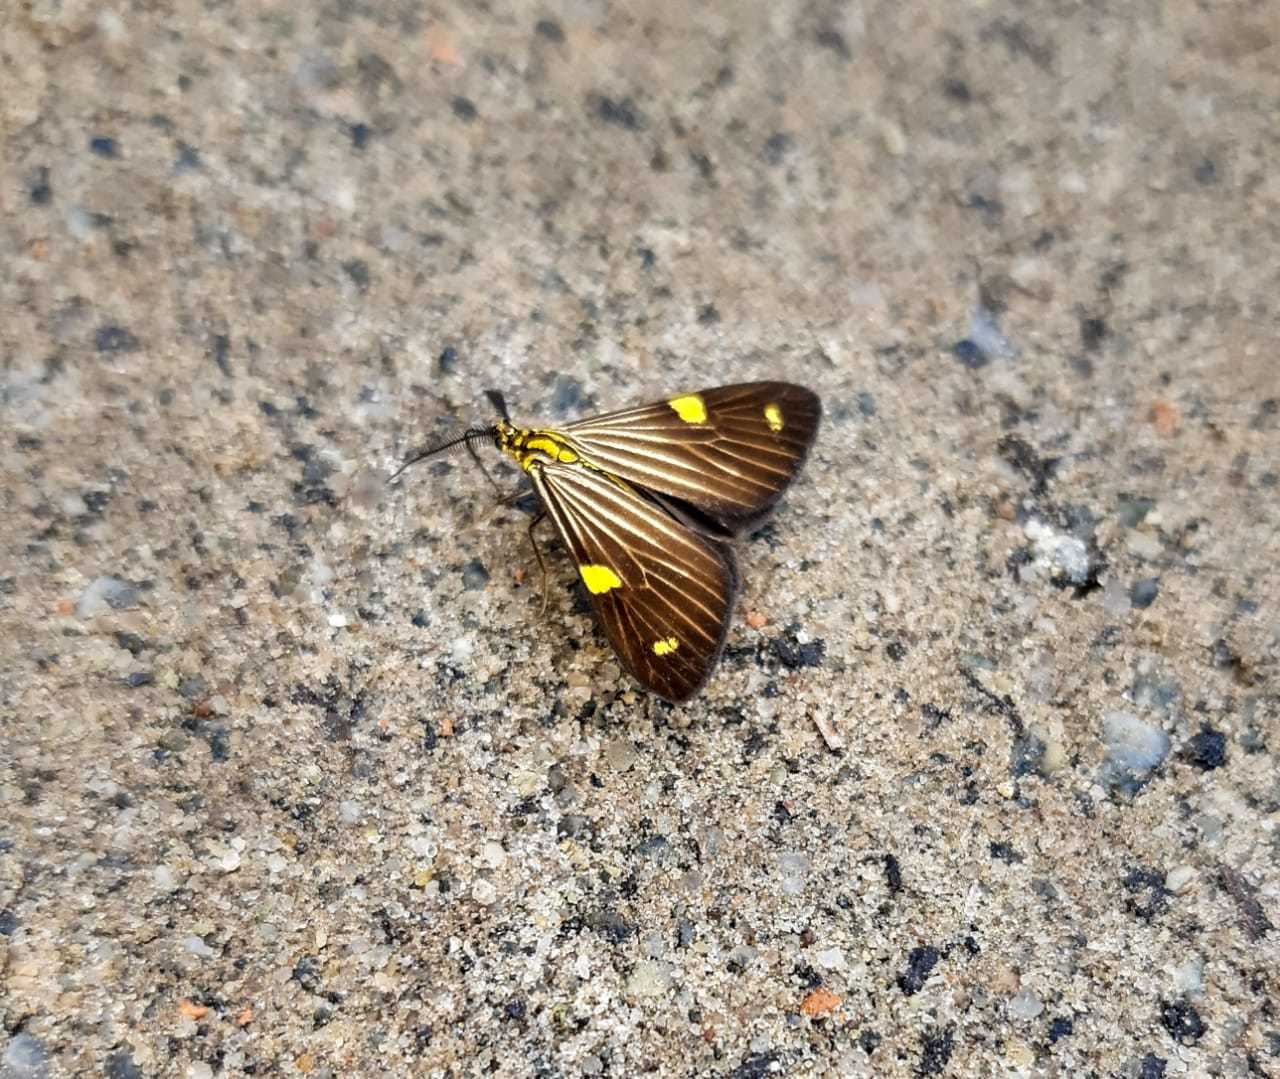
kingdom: Animalia
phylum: Arthropoda
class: Insecta
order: Lepidoptera
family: Notodontidae
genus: Phaeochlaena
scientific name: Phaeochlaena
